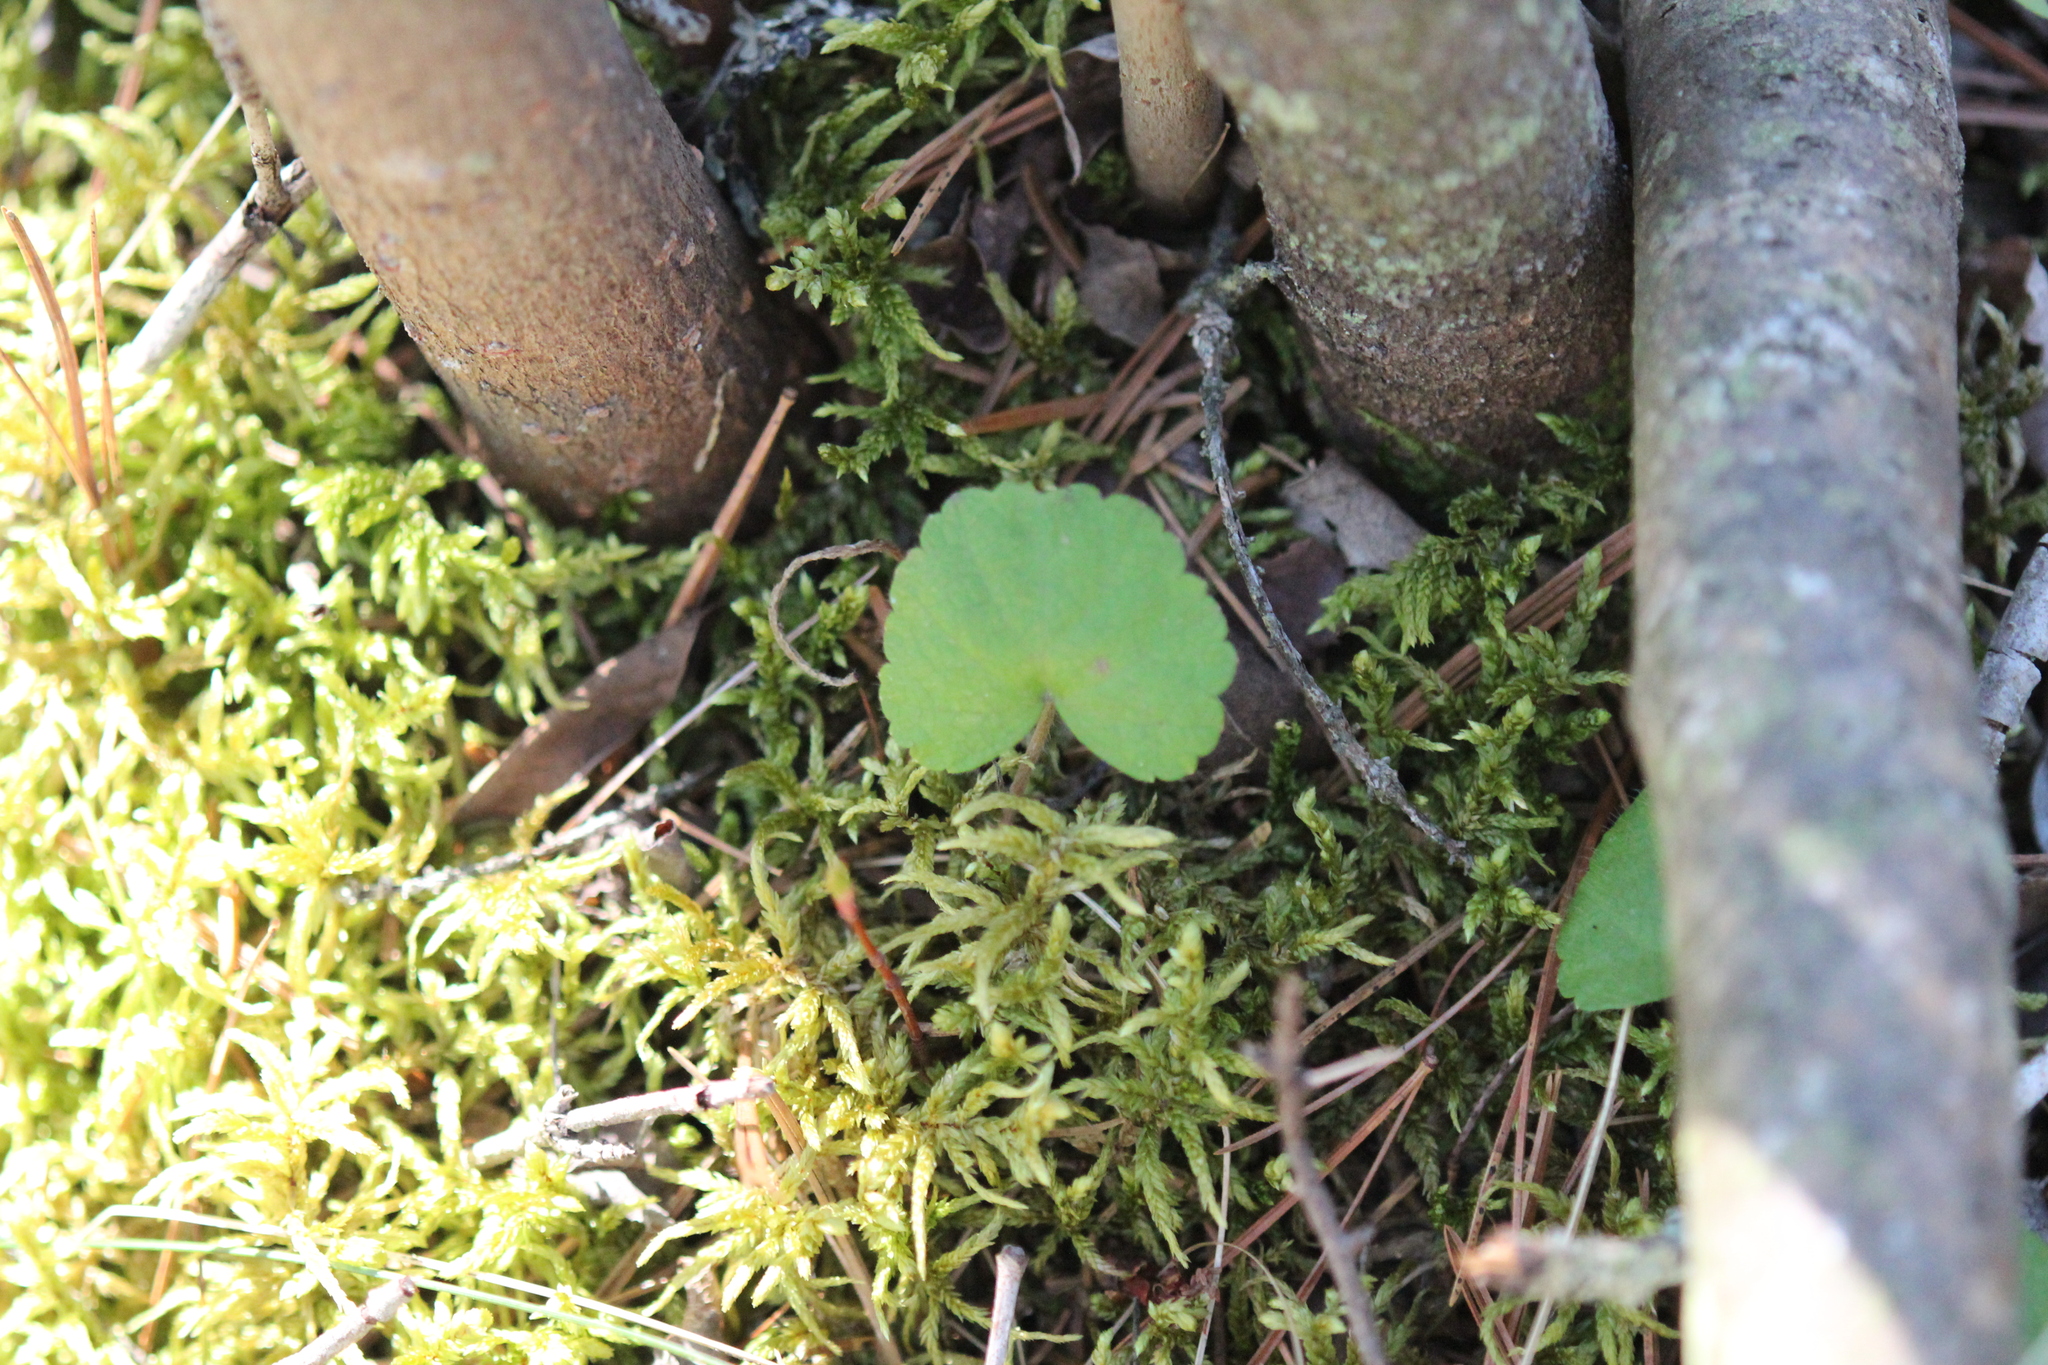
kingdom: Plantae
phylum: Tracheophyta
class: Magnoliopsida
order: Rosales
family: Rosaceae
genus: Dalibarda
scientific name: Dalibarda repens
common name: Dewdrop
